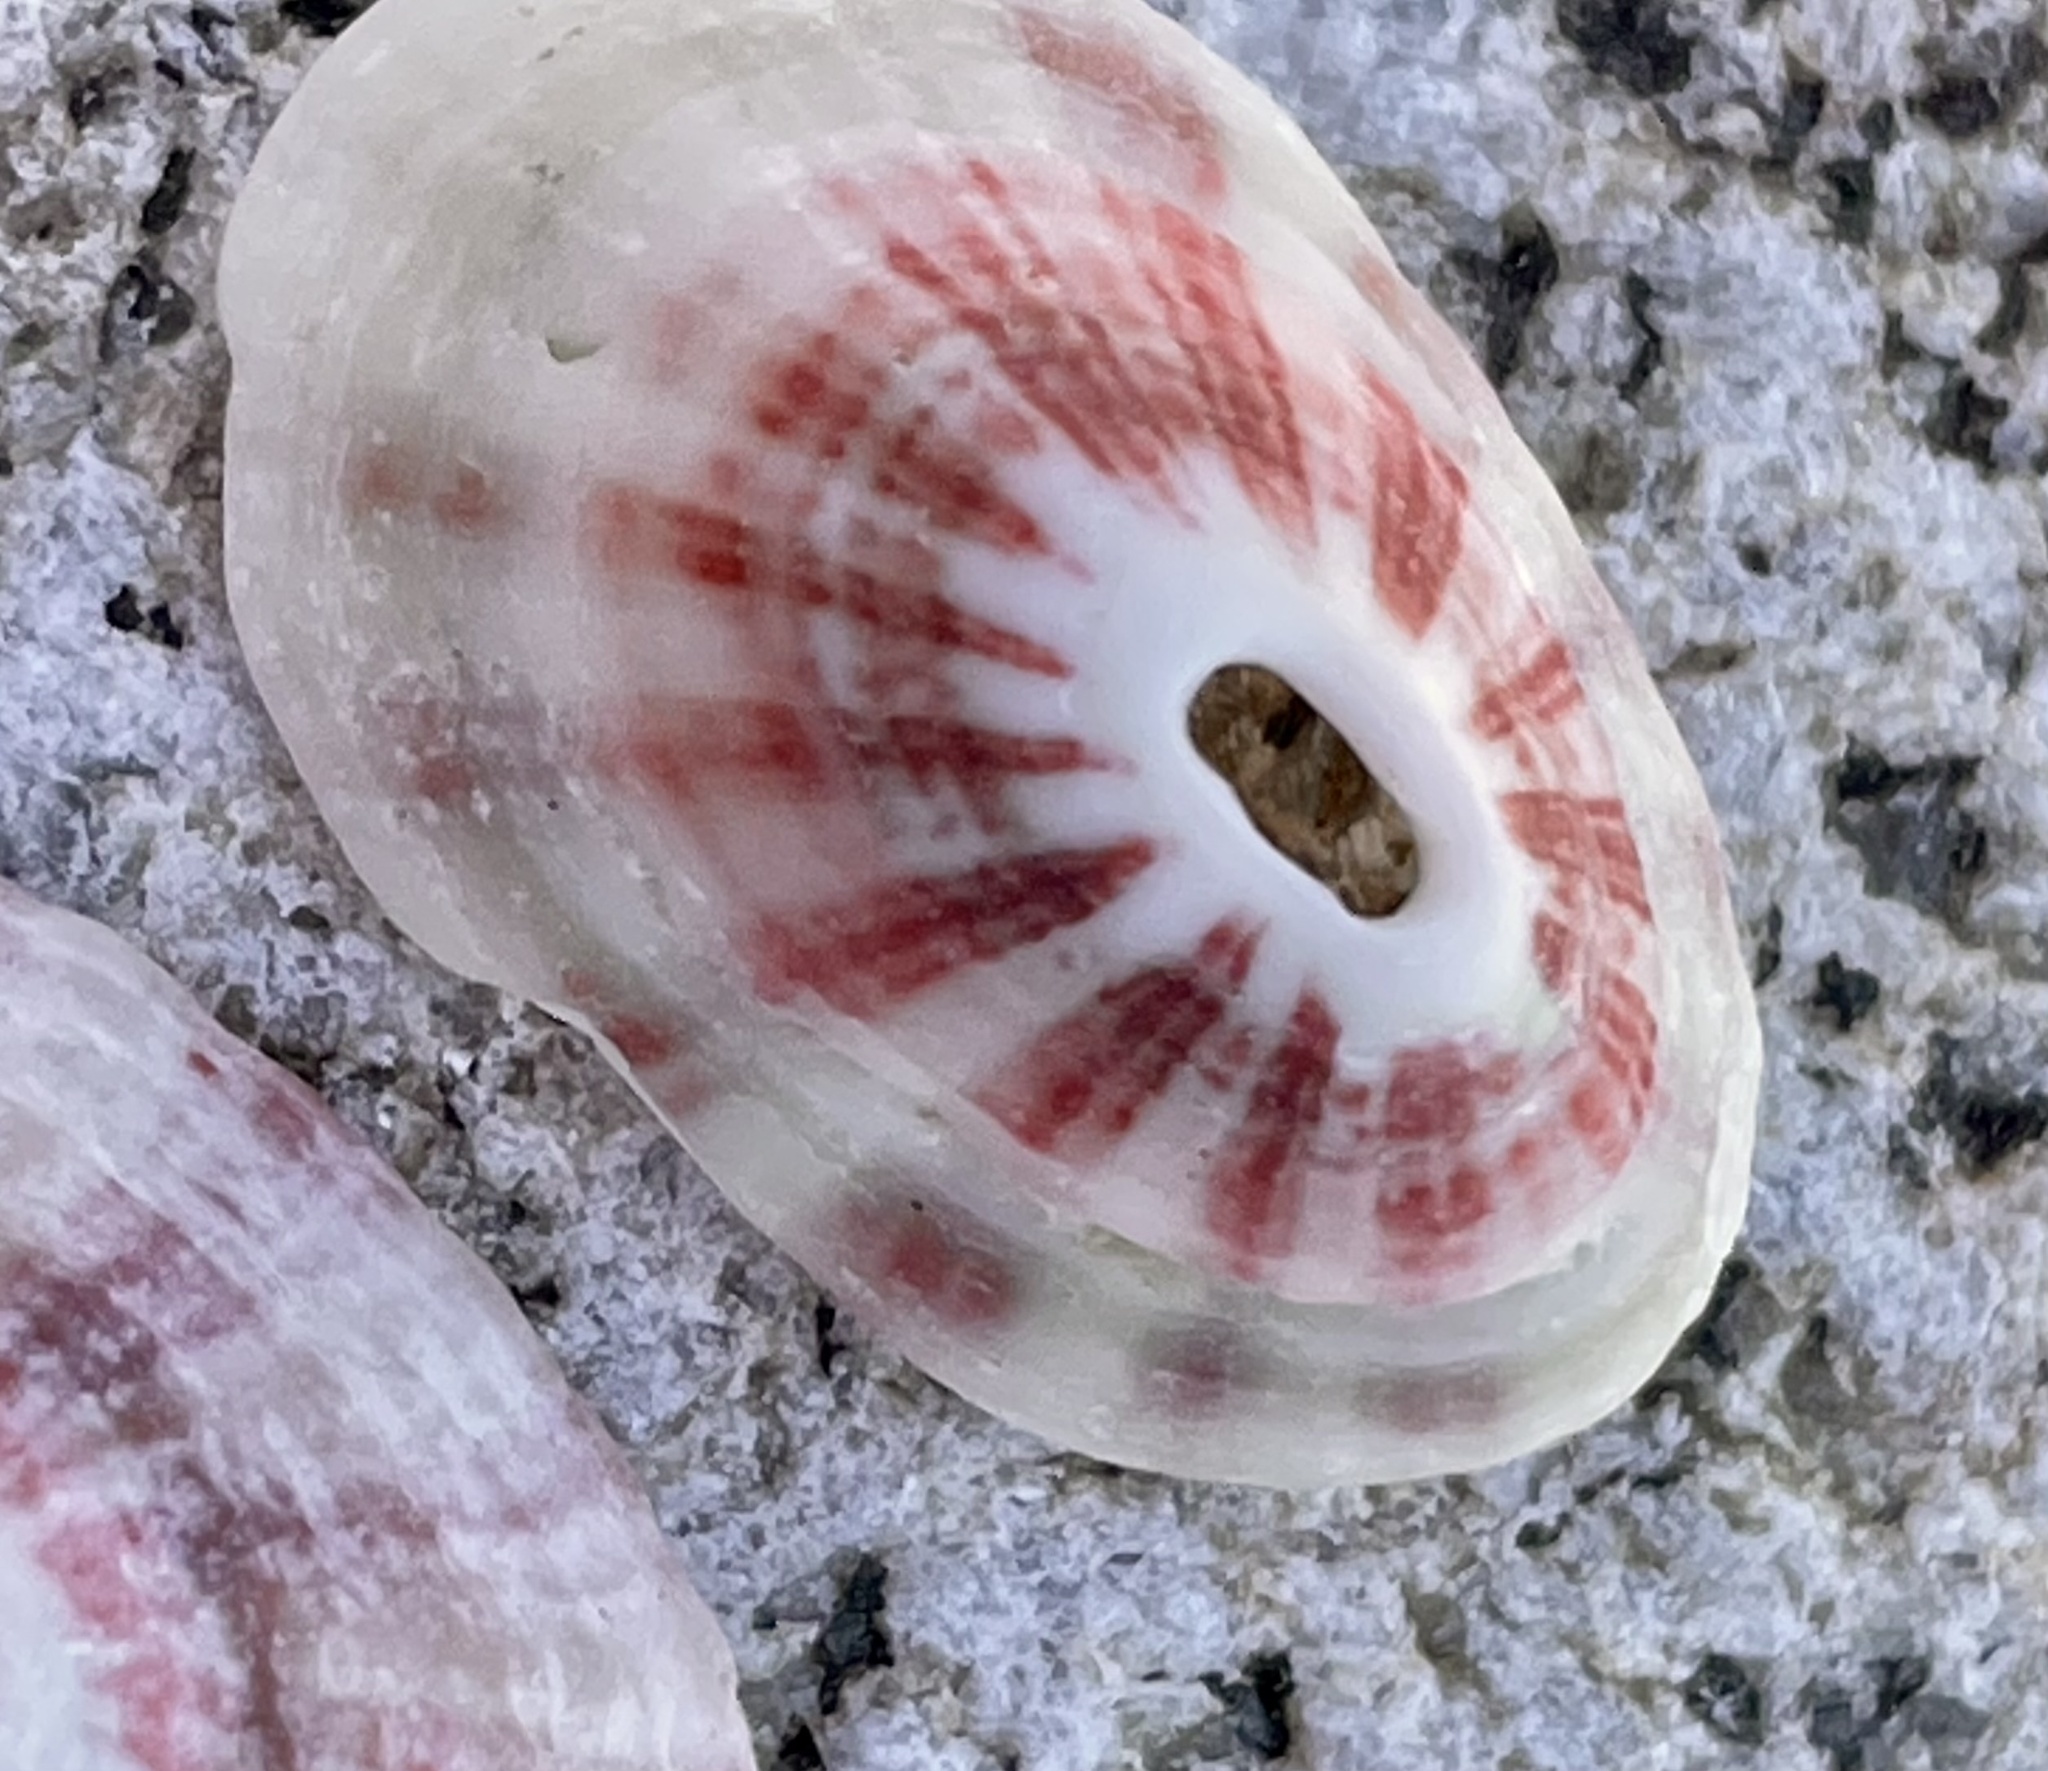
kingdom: Animalia
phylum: Mollusca
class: Gastropoda
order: Lepetellida
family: Fissurellidae
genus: Fissurella
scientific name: Fissurella volcano
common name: Volcano keyhole limpet
